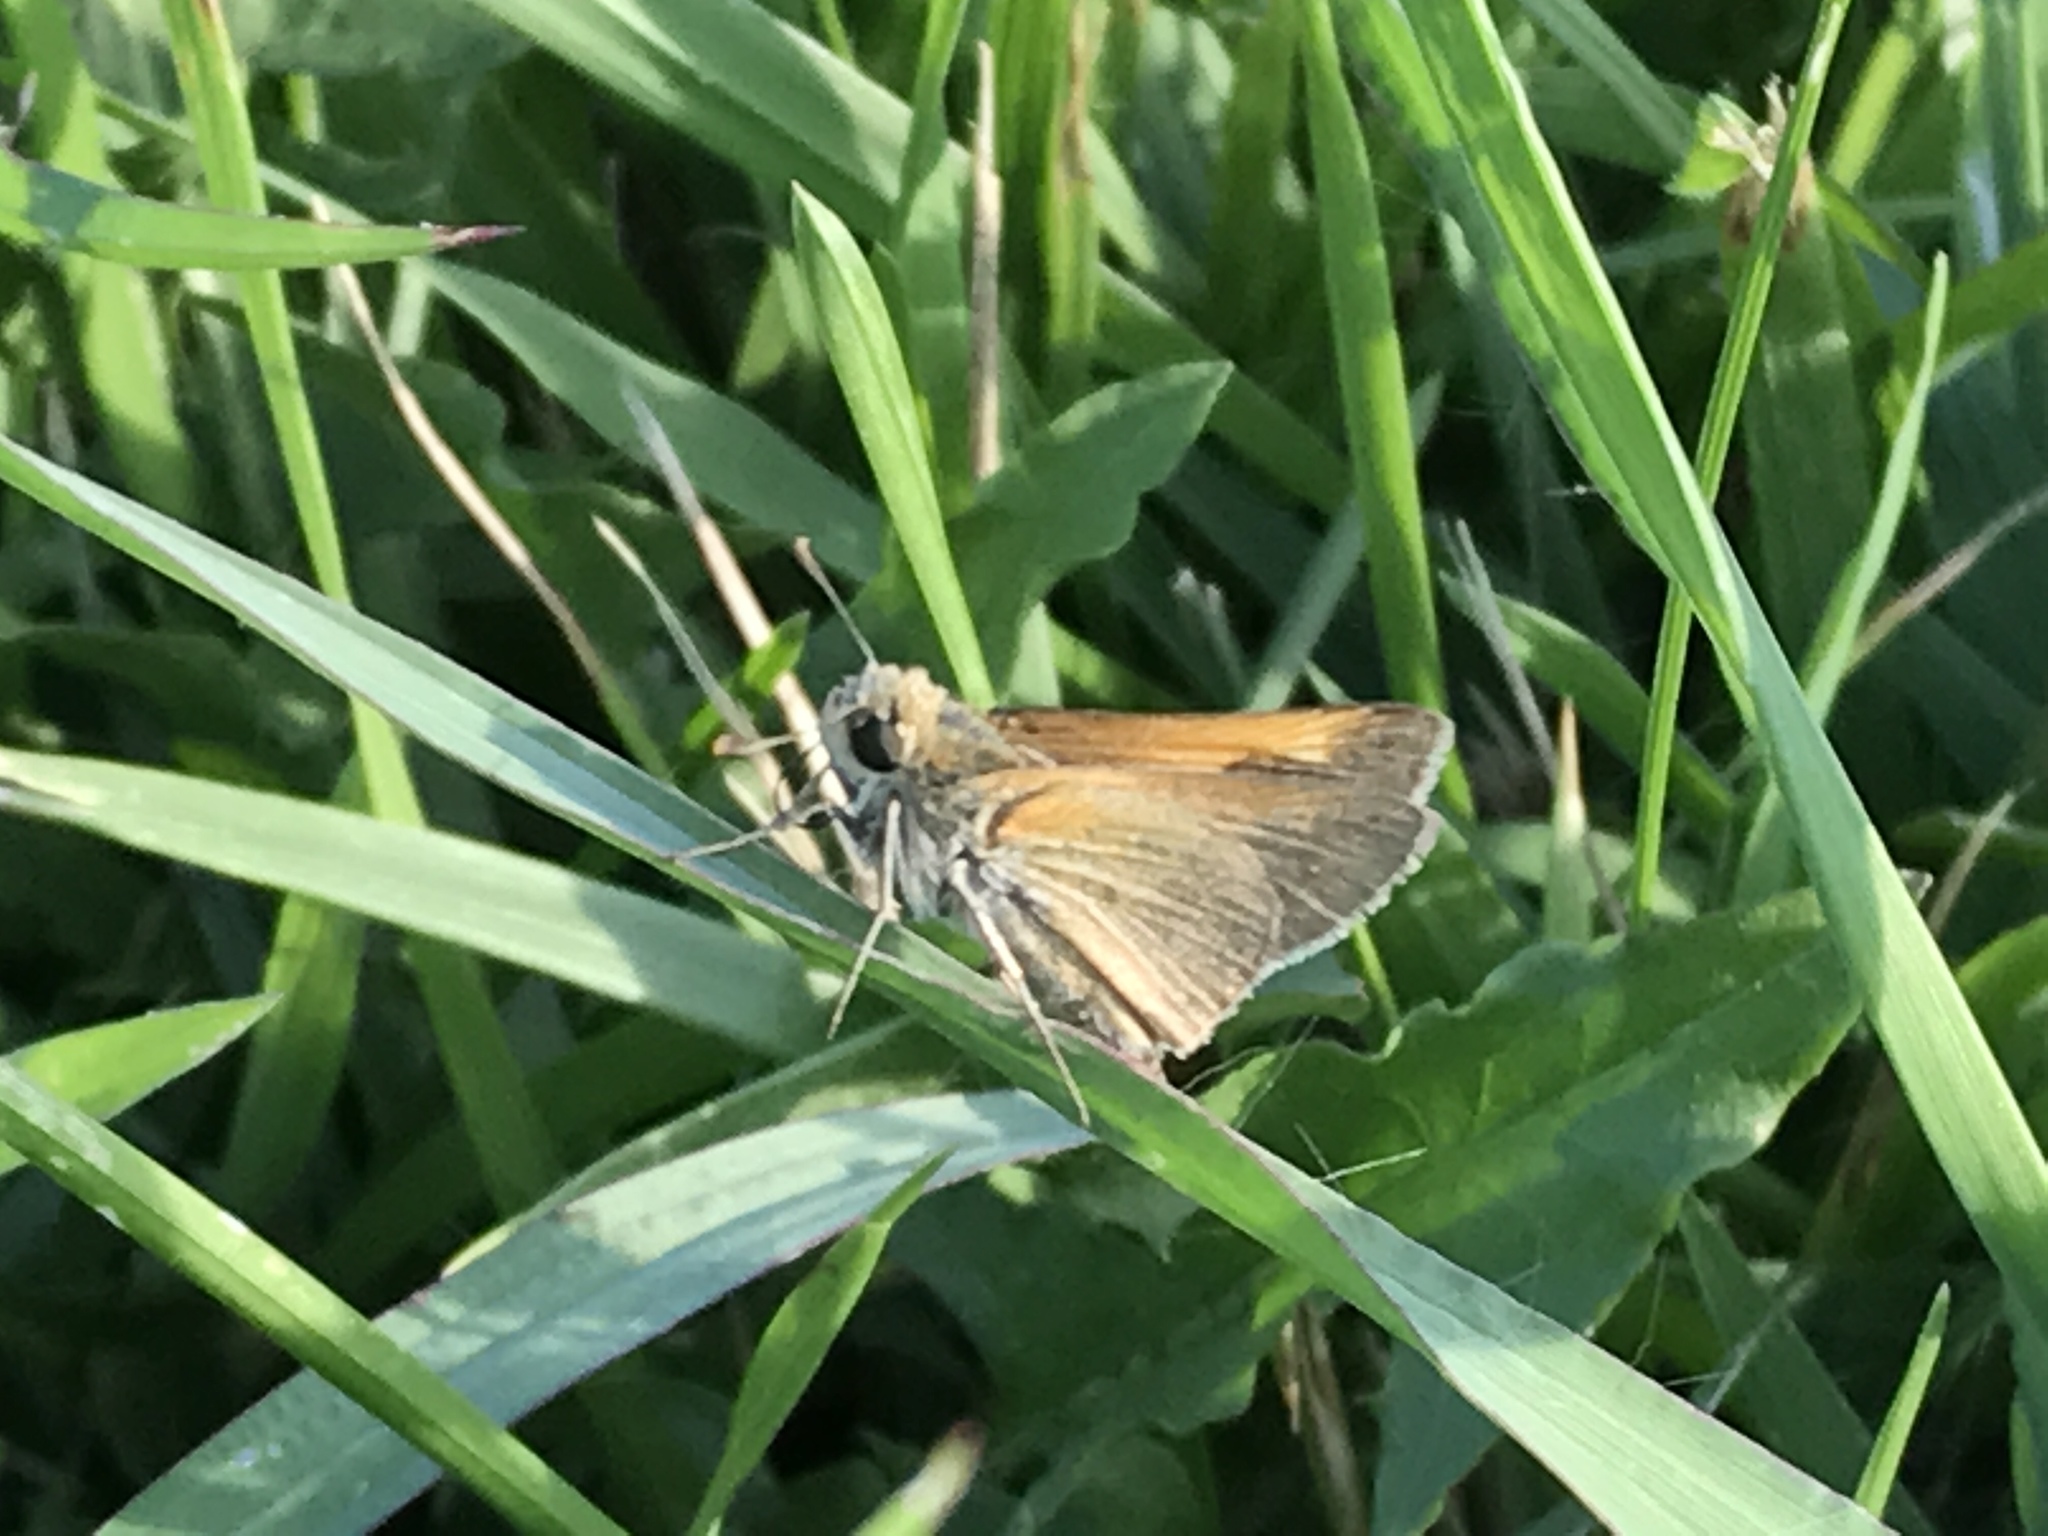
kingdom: Animalia
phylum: Arthropoda
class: Insecta
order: Lepidoptera
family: Hesperiidae
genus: Polites
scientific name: Polites themistocles
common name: Tawny-edged skipper
